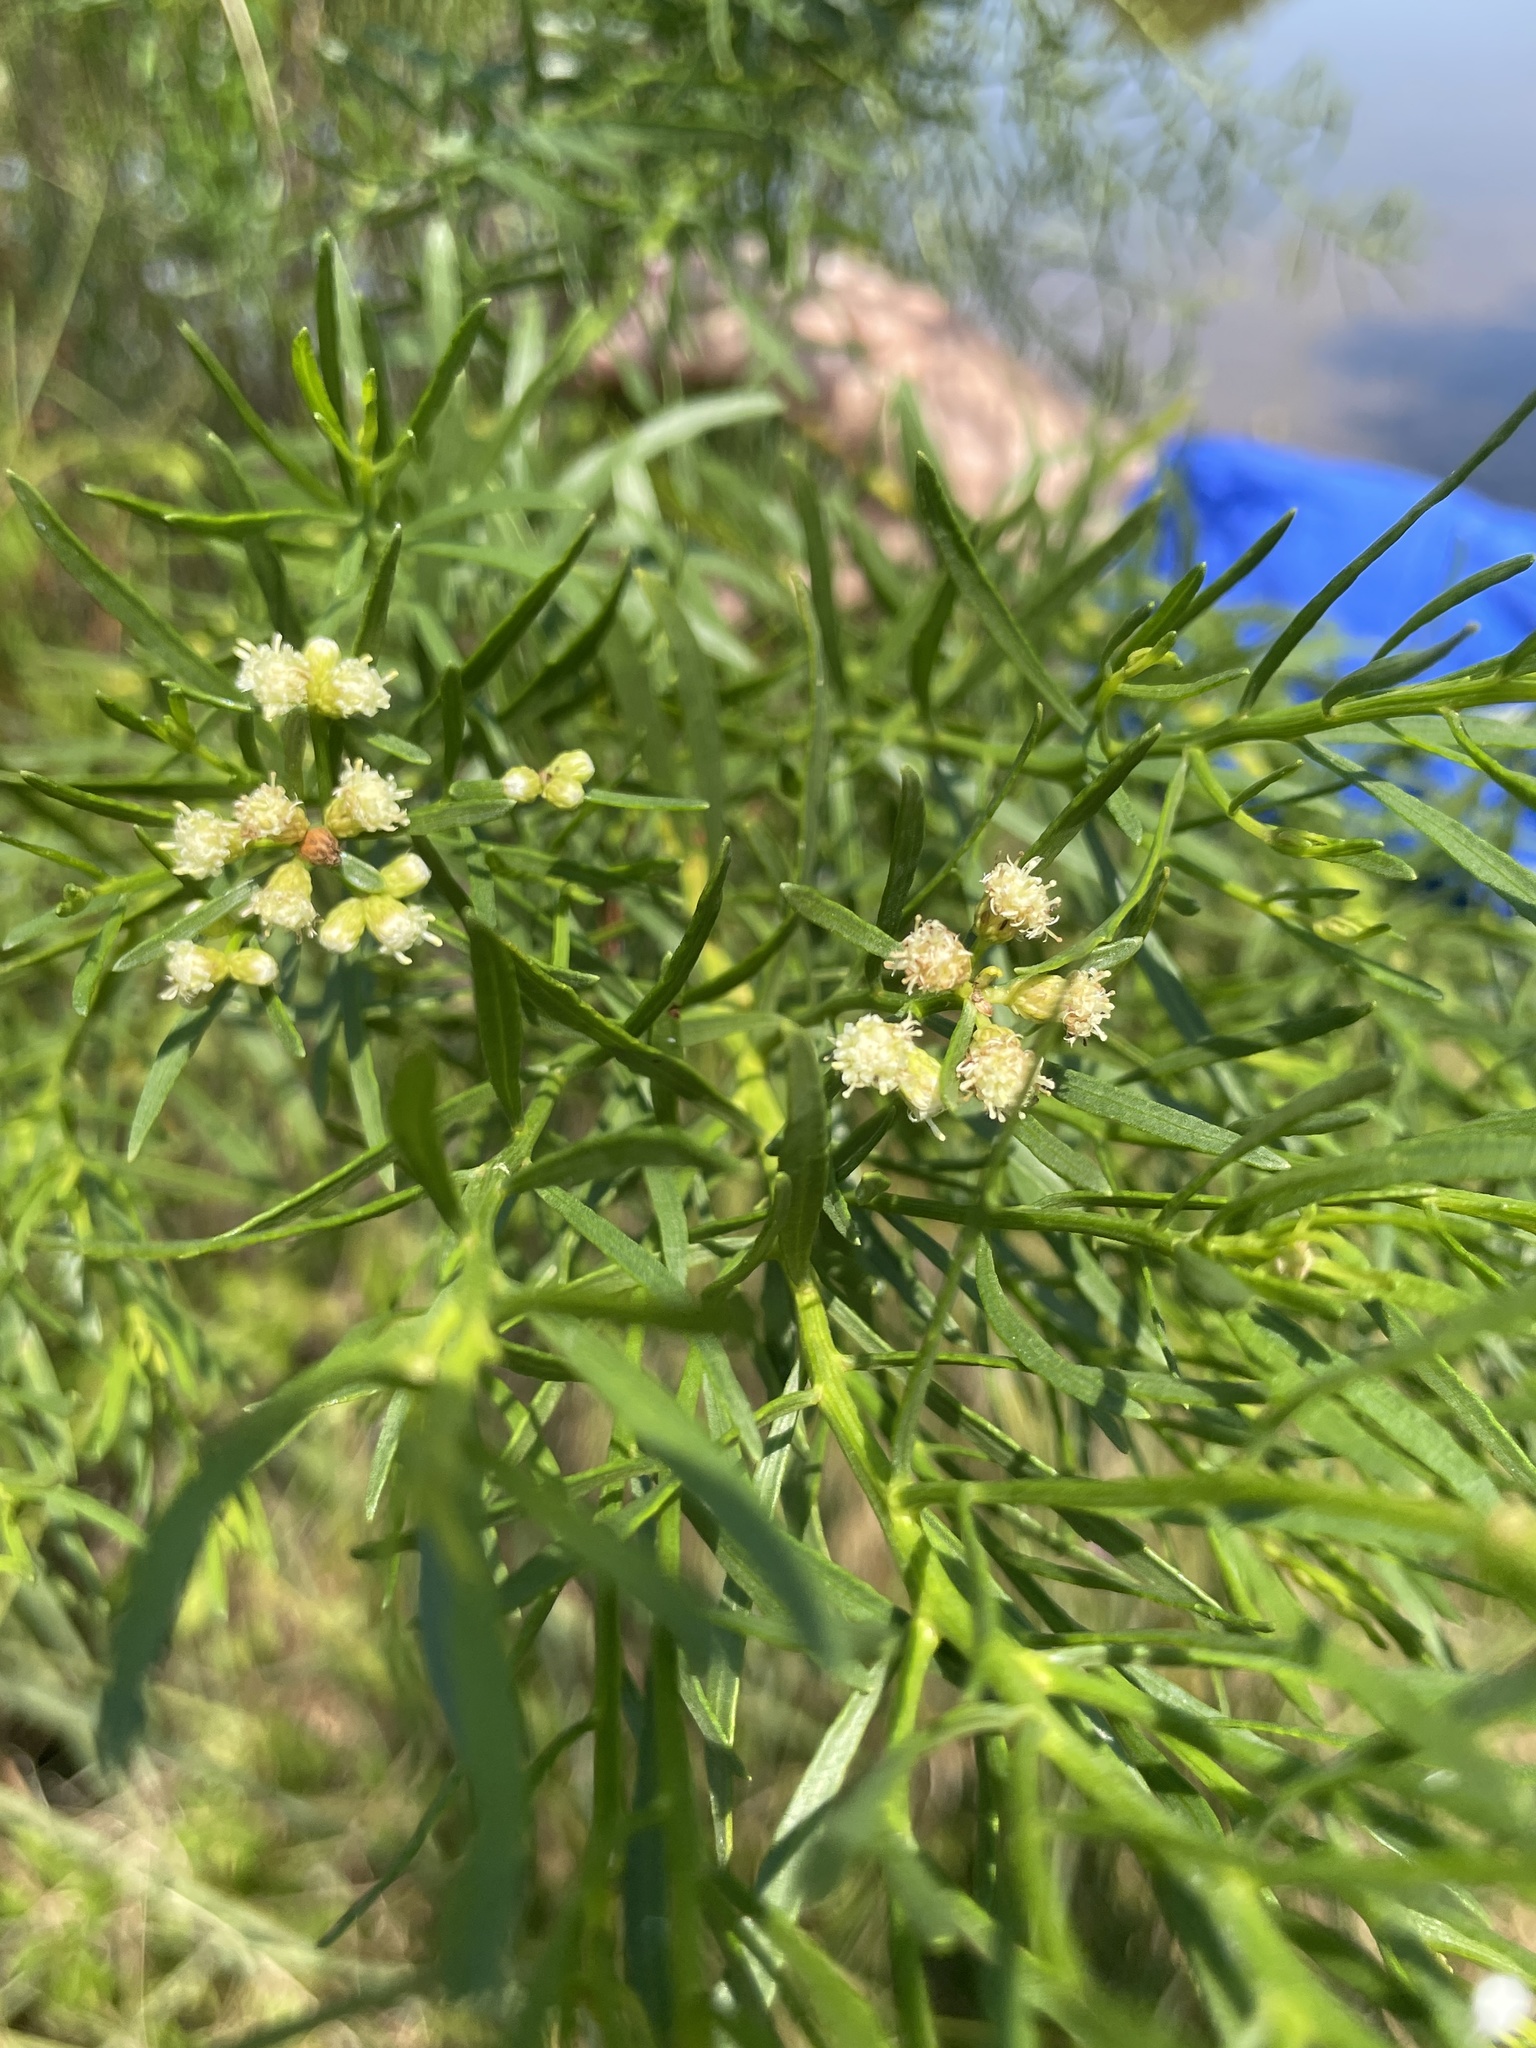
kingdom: Plantae
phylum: Tracheophyta
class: Magnoliopsida
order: Asterales
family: Asteraceae
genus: Baccharis
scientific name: Baccharis angustifolia
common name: Narrow-leaf baccharis
